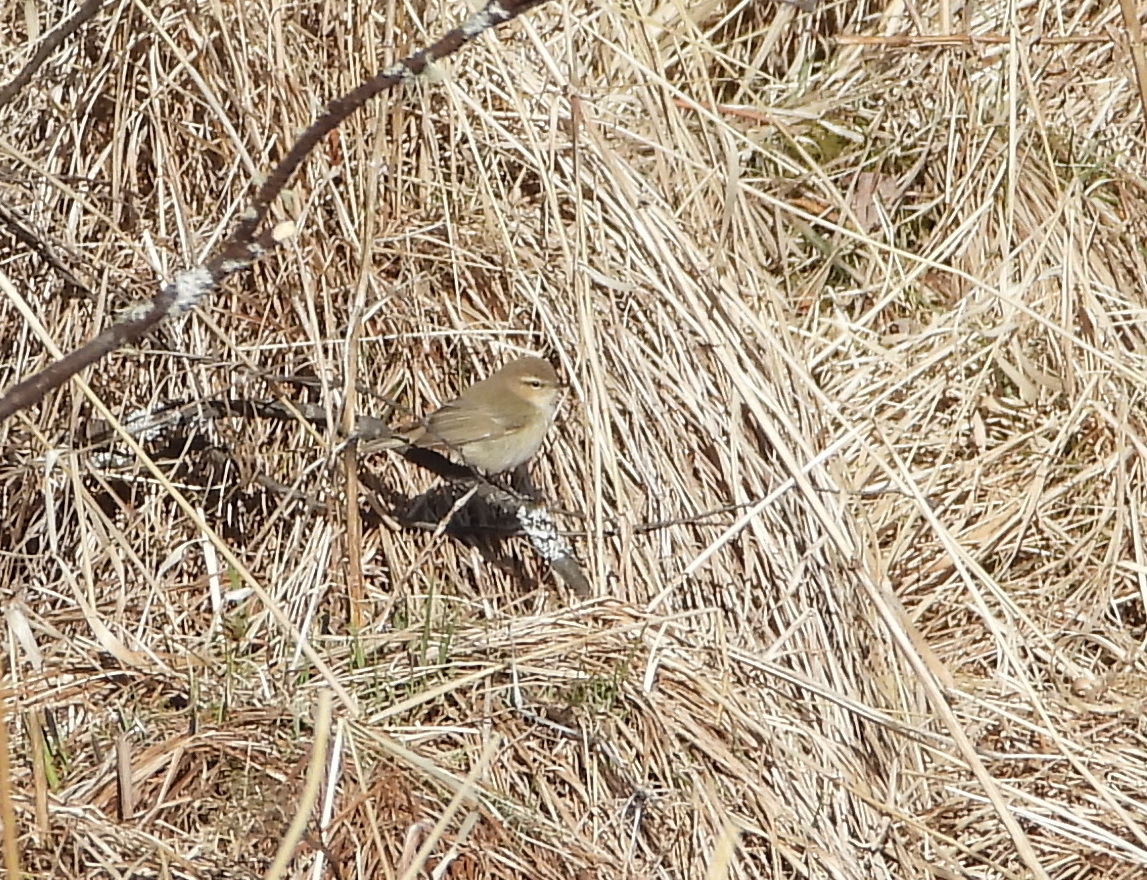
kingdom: Animalia
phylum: Chordata
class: Aves
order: Passeriformes
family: Phylloscopidae
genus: Phylloscopus
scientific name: Phylloscopus collybita
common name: Common chiffchaff
